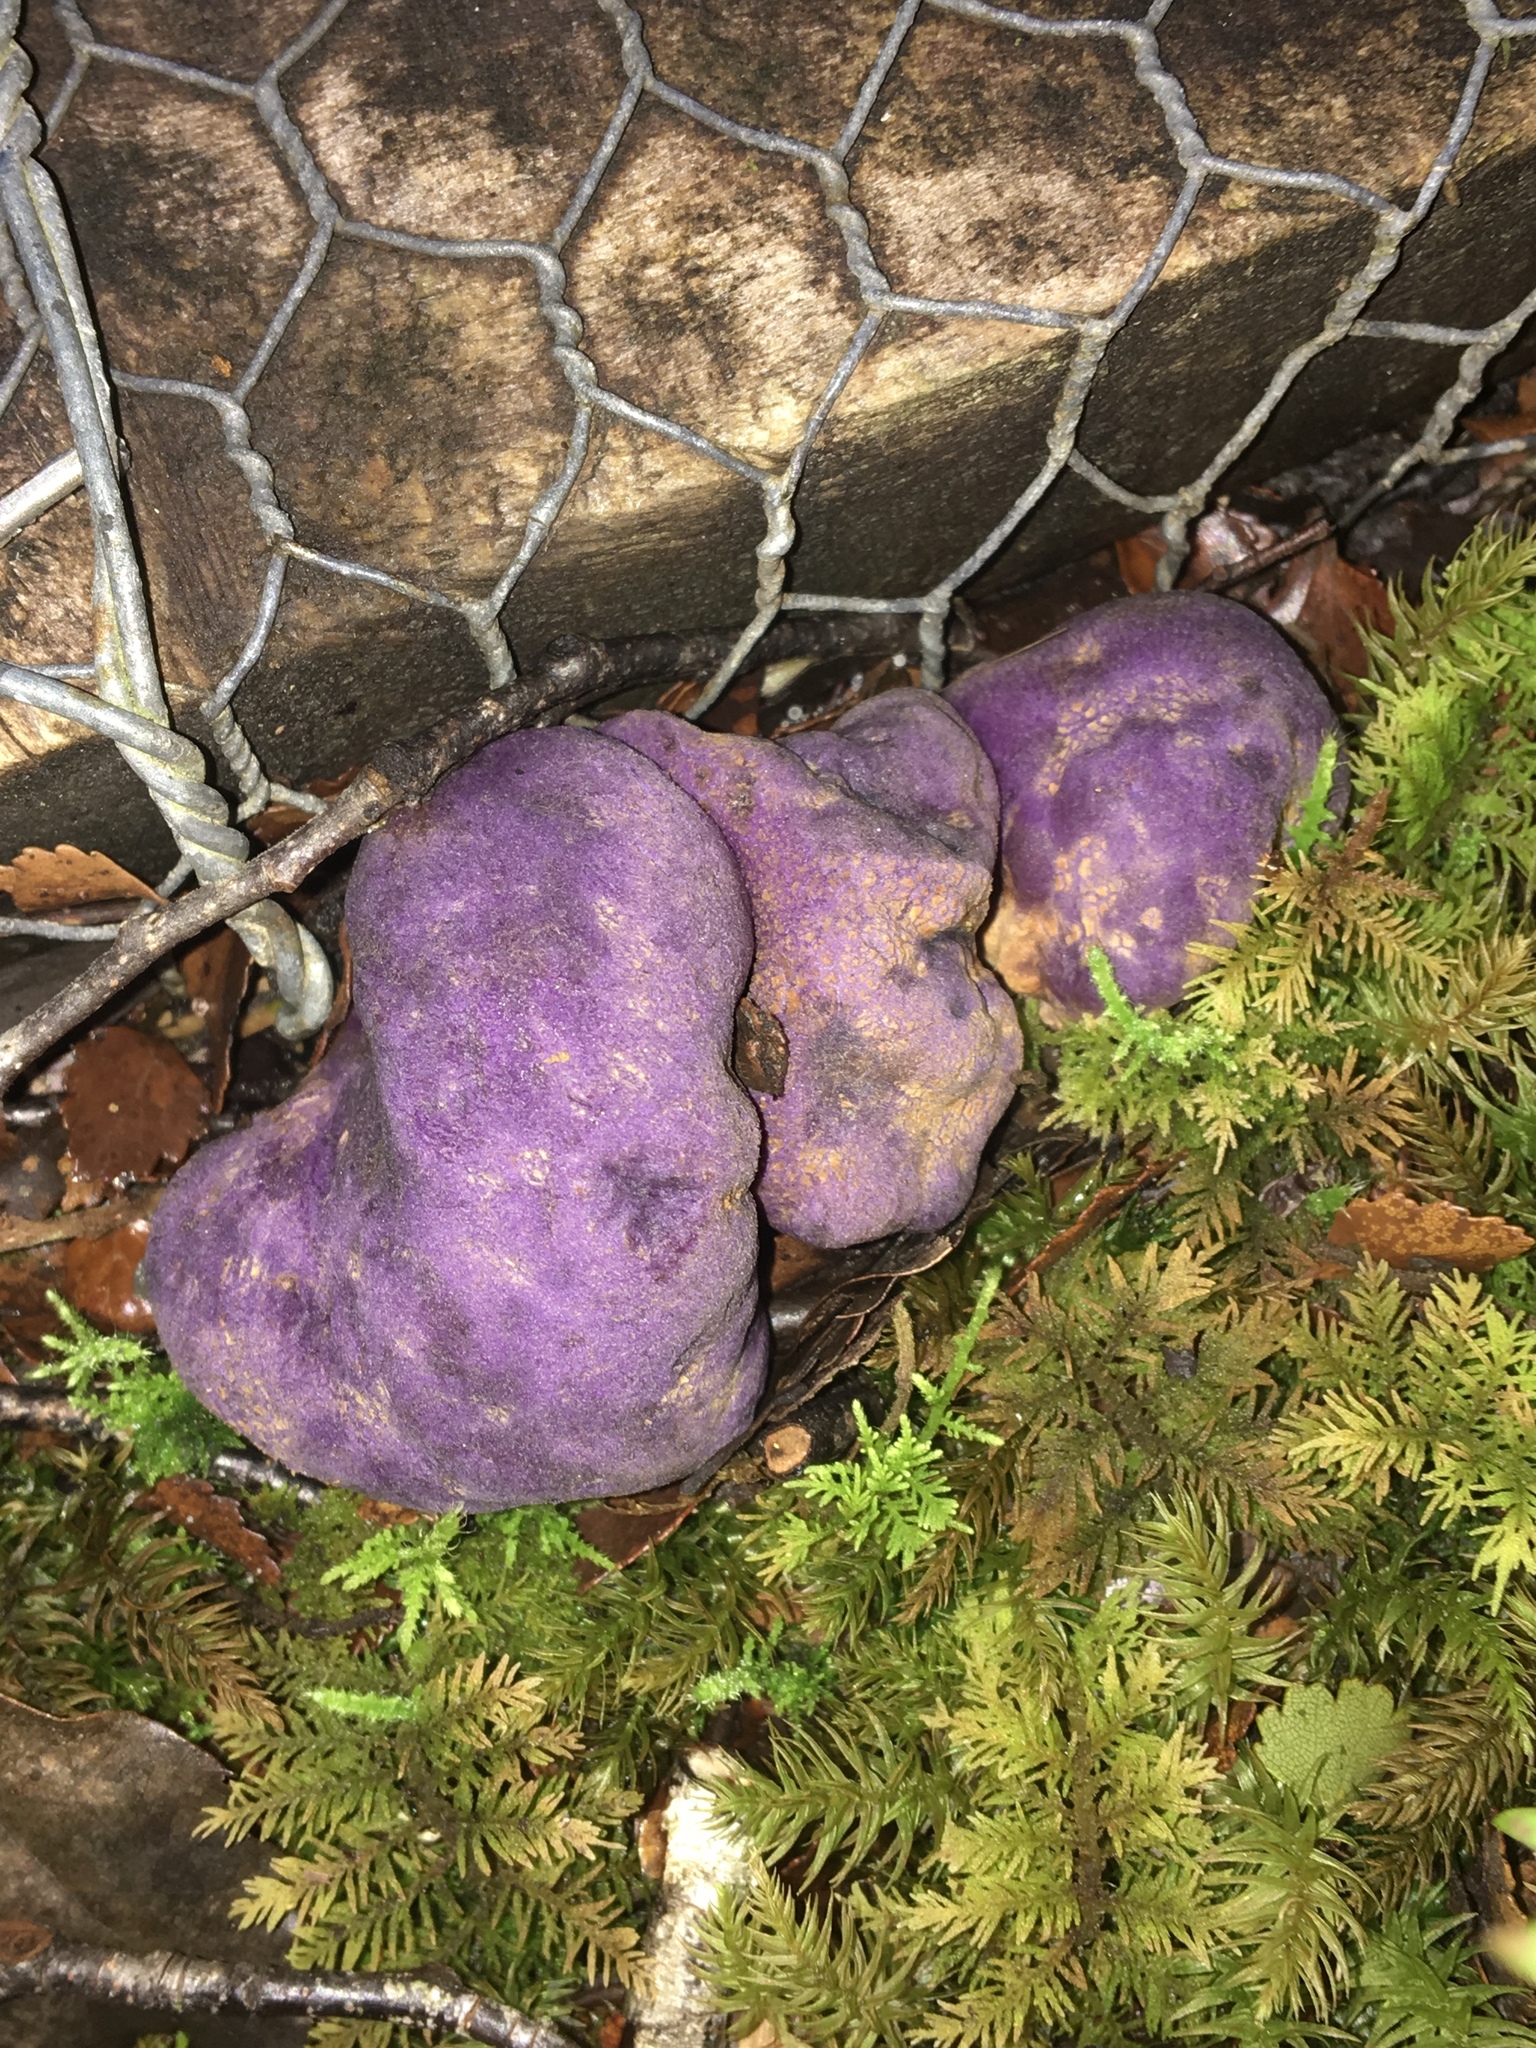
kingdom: Fungi
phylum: Basidiomycota
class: Agaricomycetes
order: Hysterangiales
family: Gallaceaceae
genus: Gallacea
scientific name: Gallacea scleroderma
